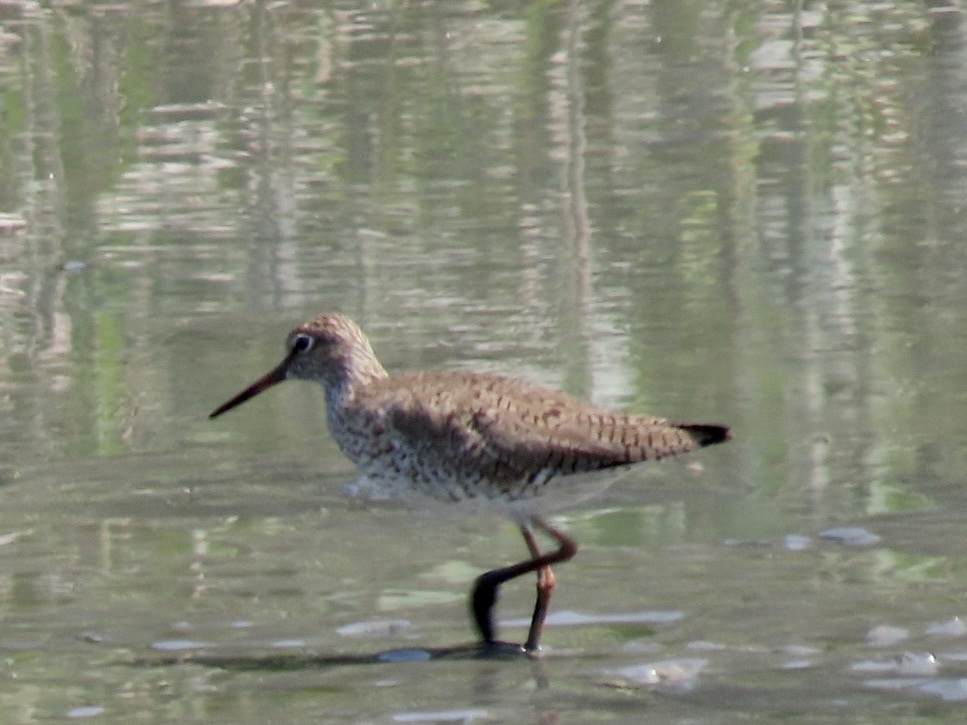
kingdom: Animalia
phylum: Chordata
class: Aves
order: Charadriiformes
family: Scolopacidae
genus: Tringa
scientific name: Tringa totanus
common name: Common redshank
